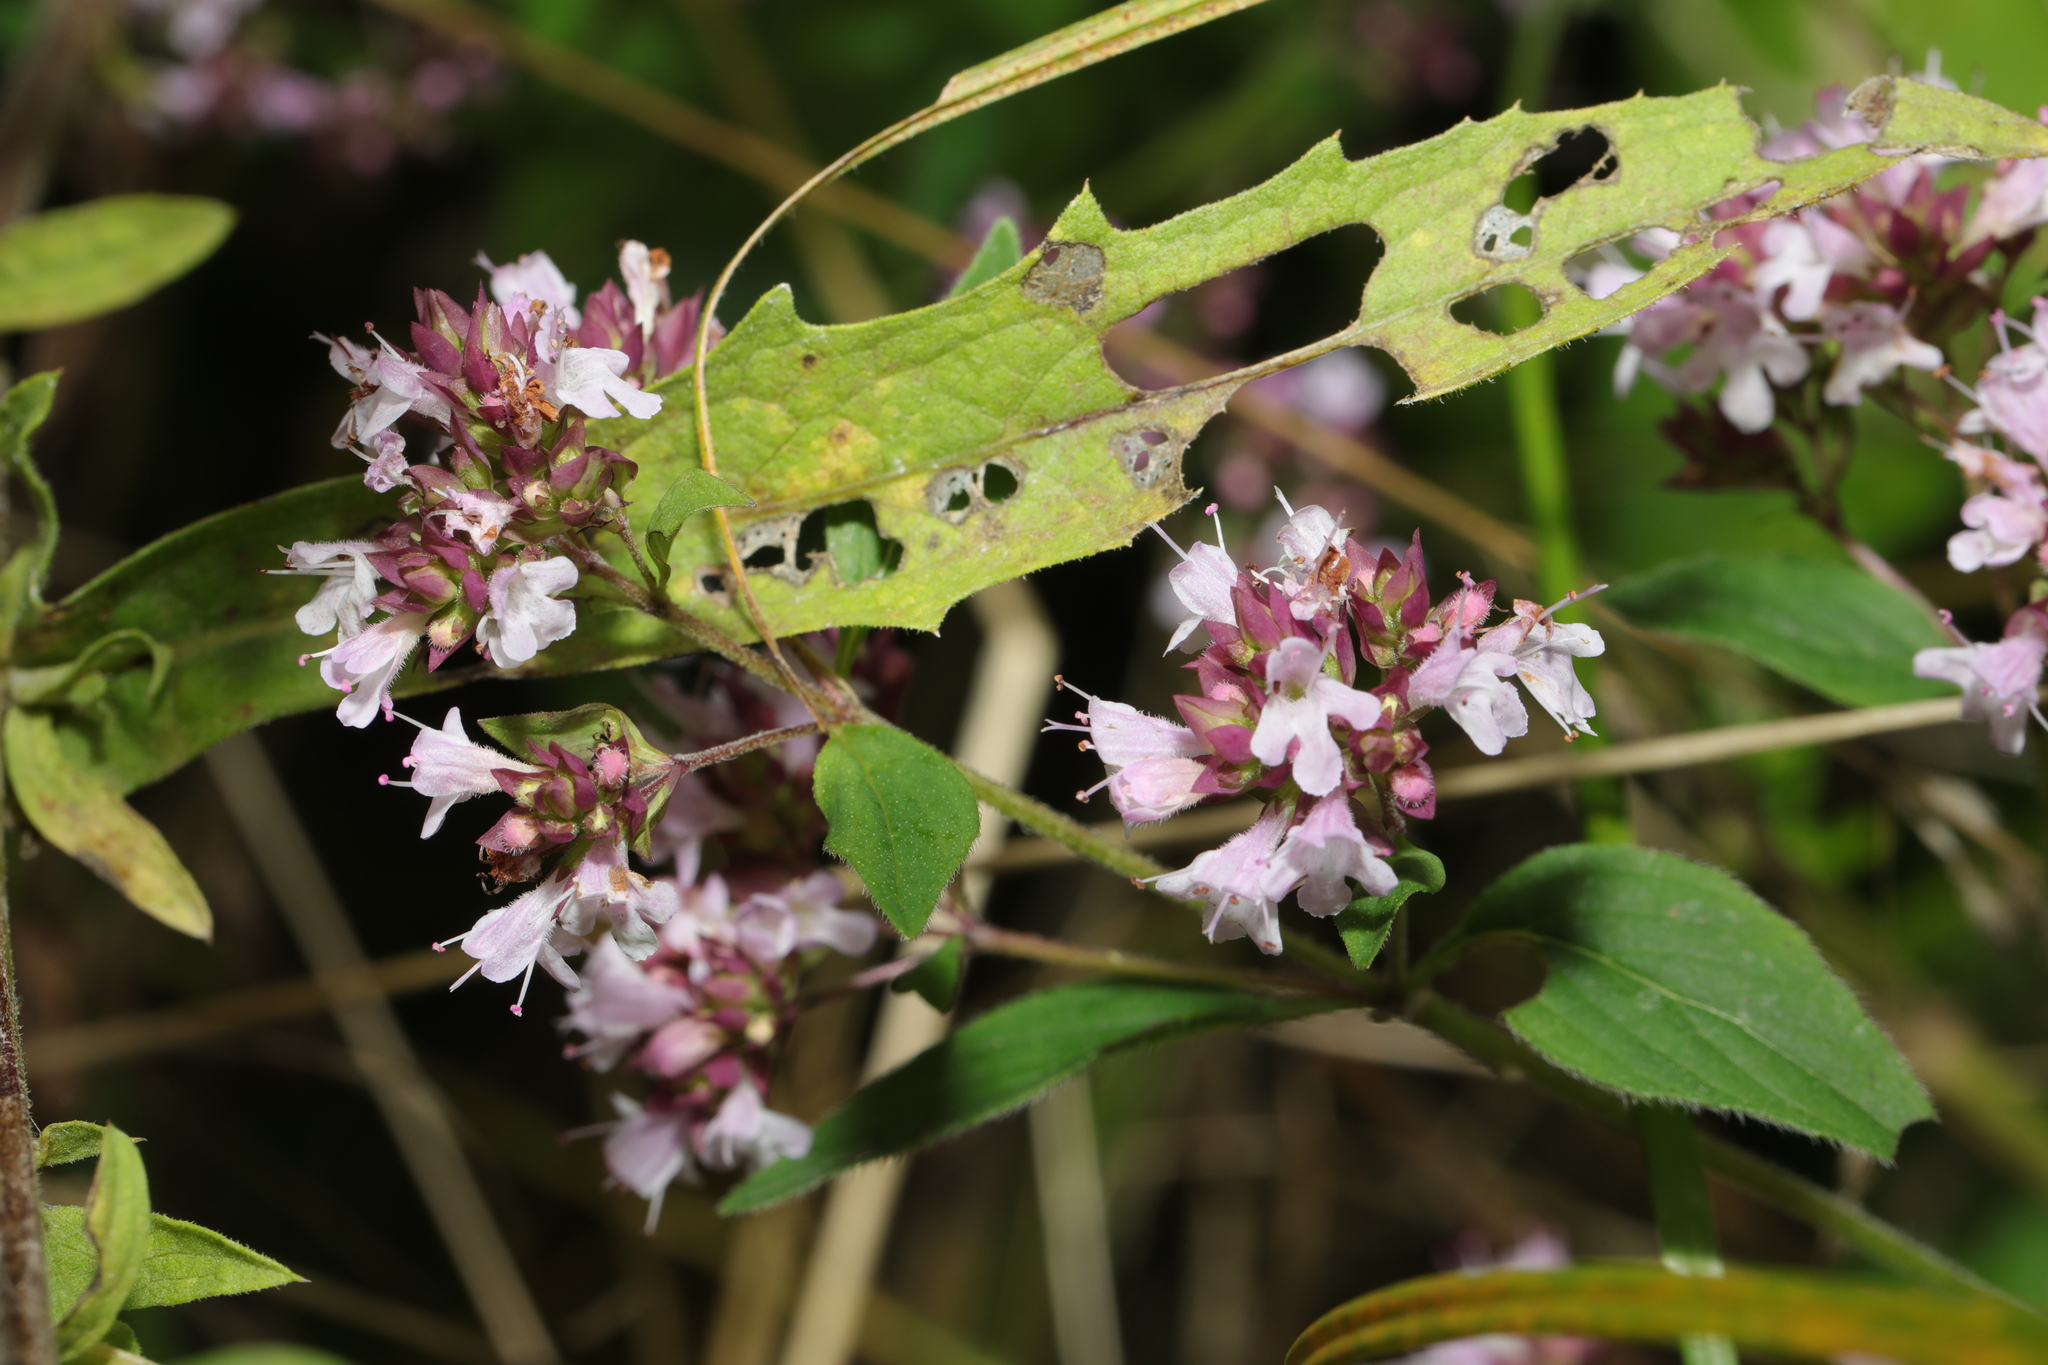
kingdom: Plantae
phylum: Tracheophyta
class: Magnoliopsida
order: Lamiales
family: Lamiaceae
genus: Origanum
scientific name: Origanum vulgare
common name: Wild marjoram
